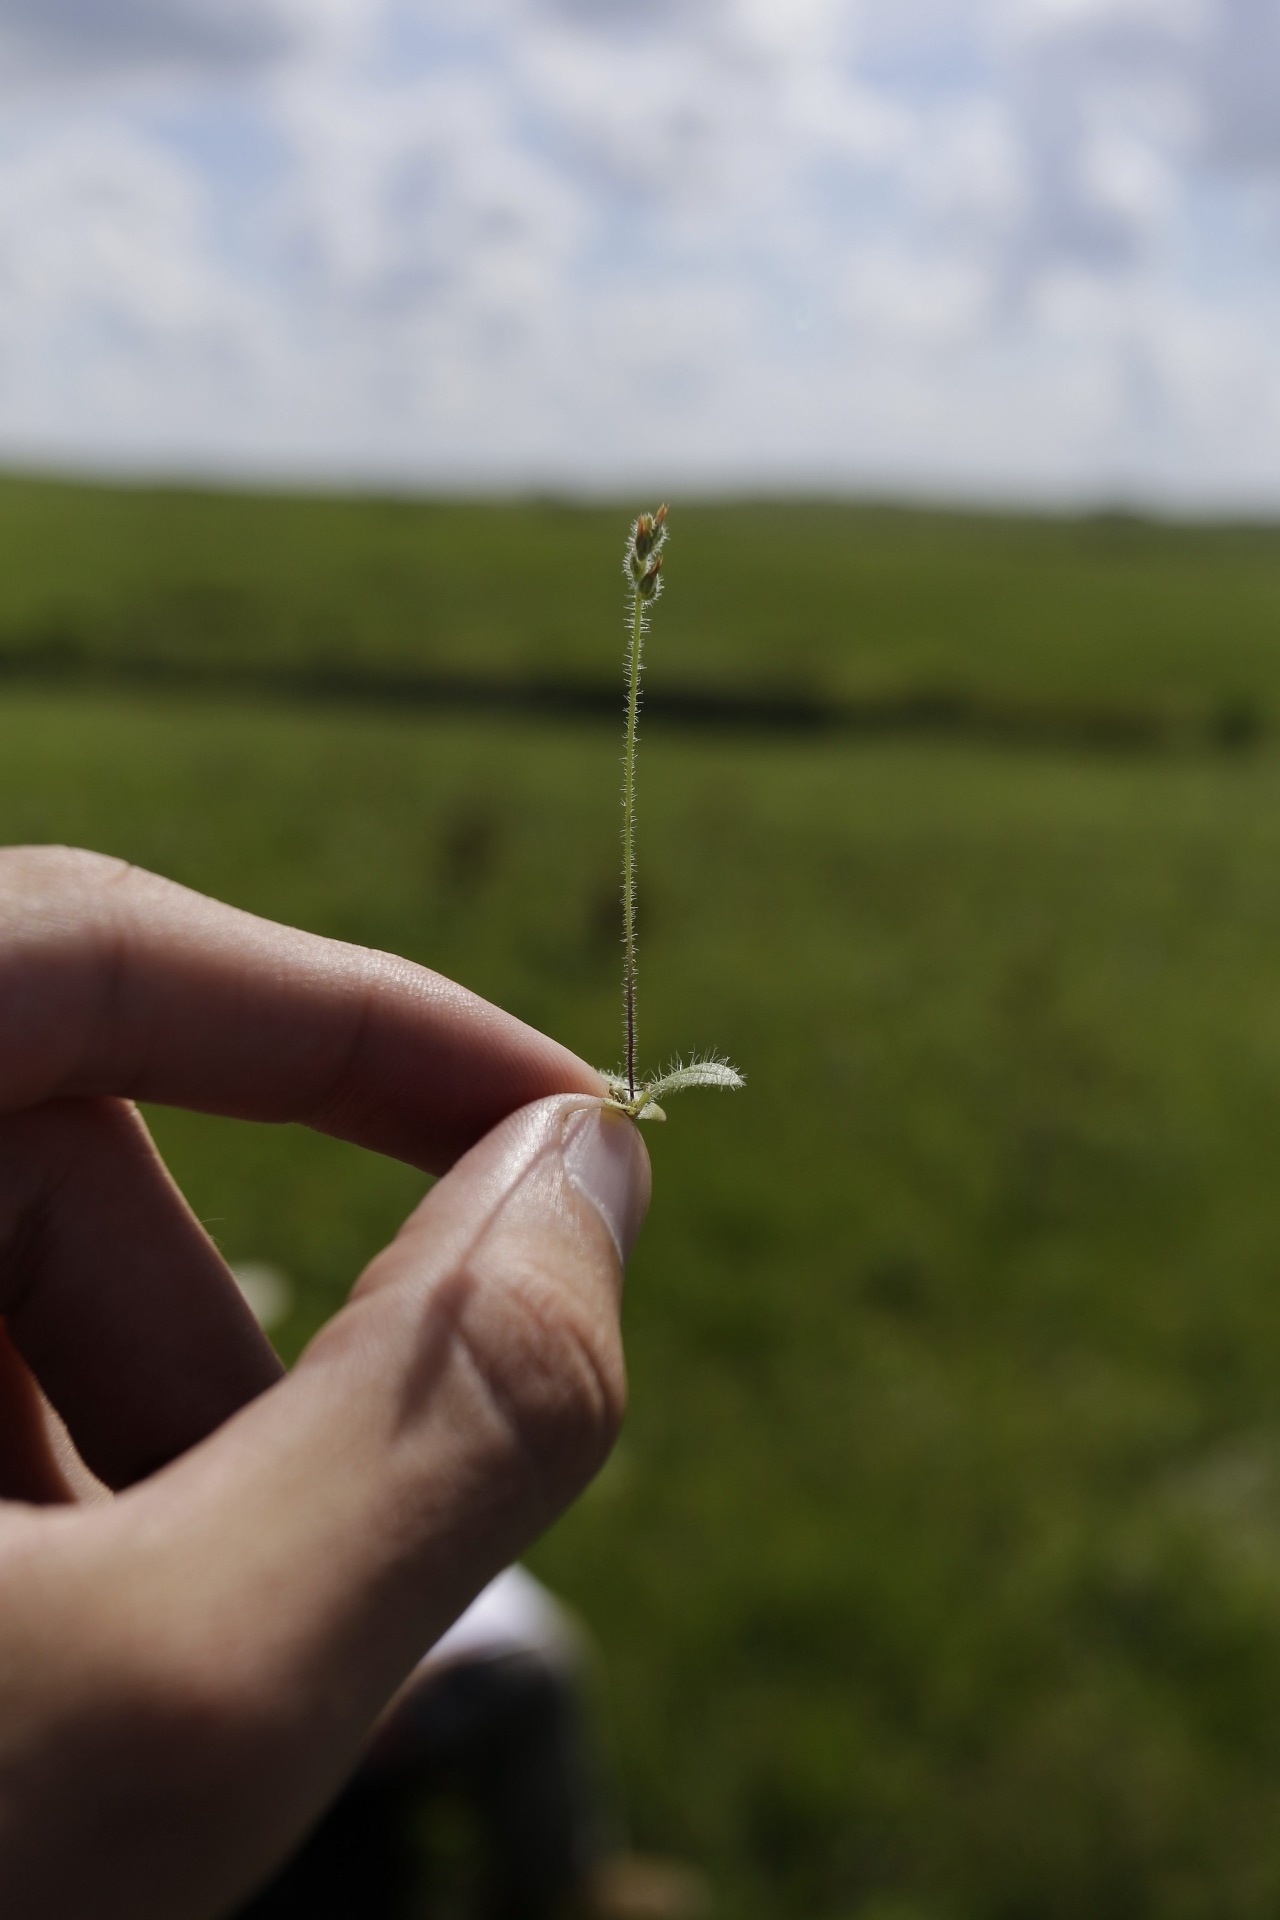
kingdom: Plantae
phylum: Tracheophyta
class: Magnoliopsida
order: Lamiales
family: Plantaginaceae
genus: Plantago
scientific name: Plantago virginica
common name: Hoary plantain
